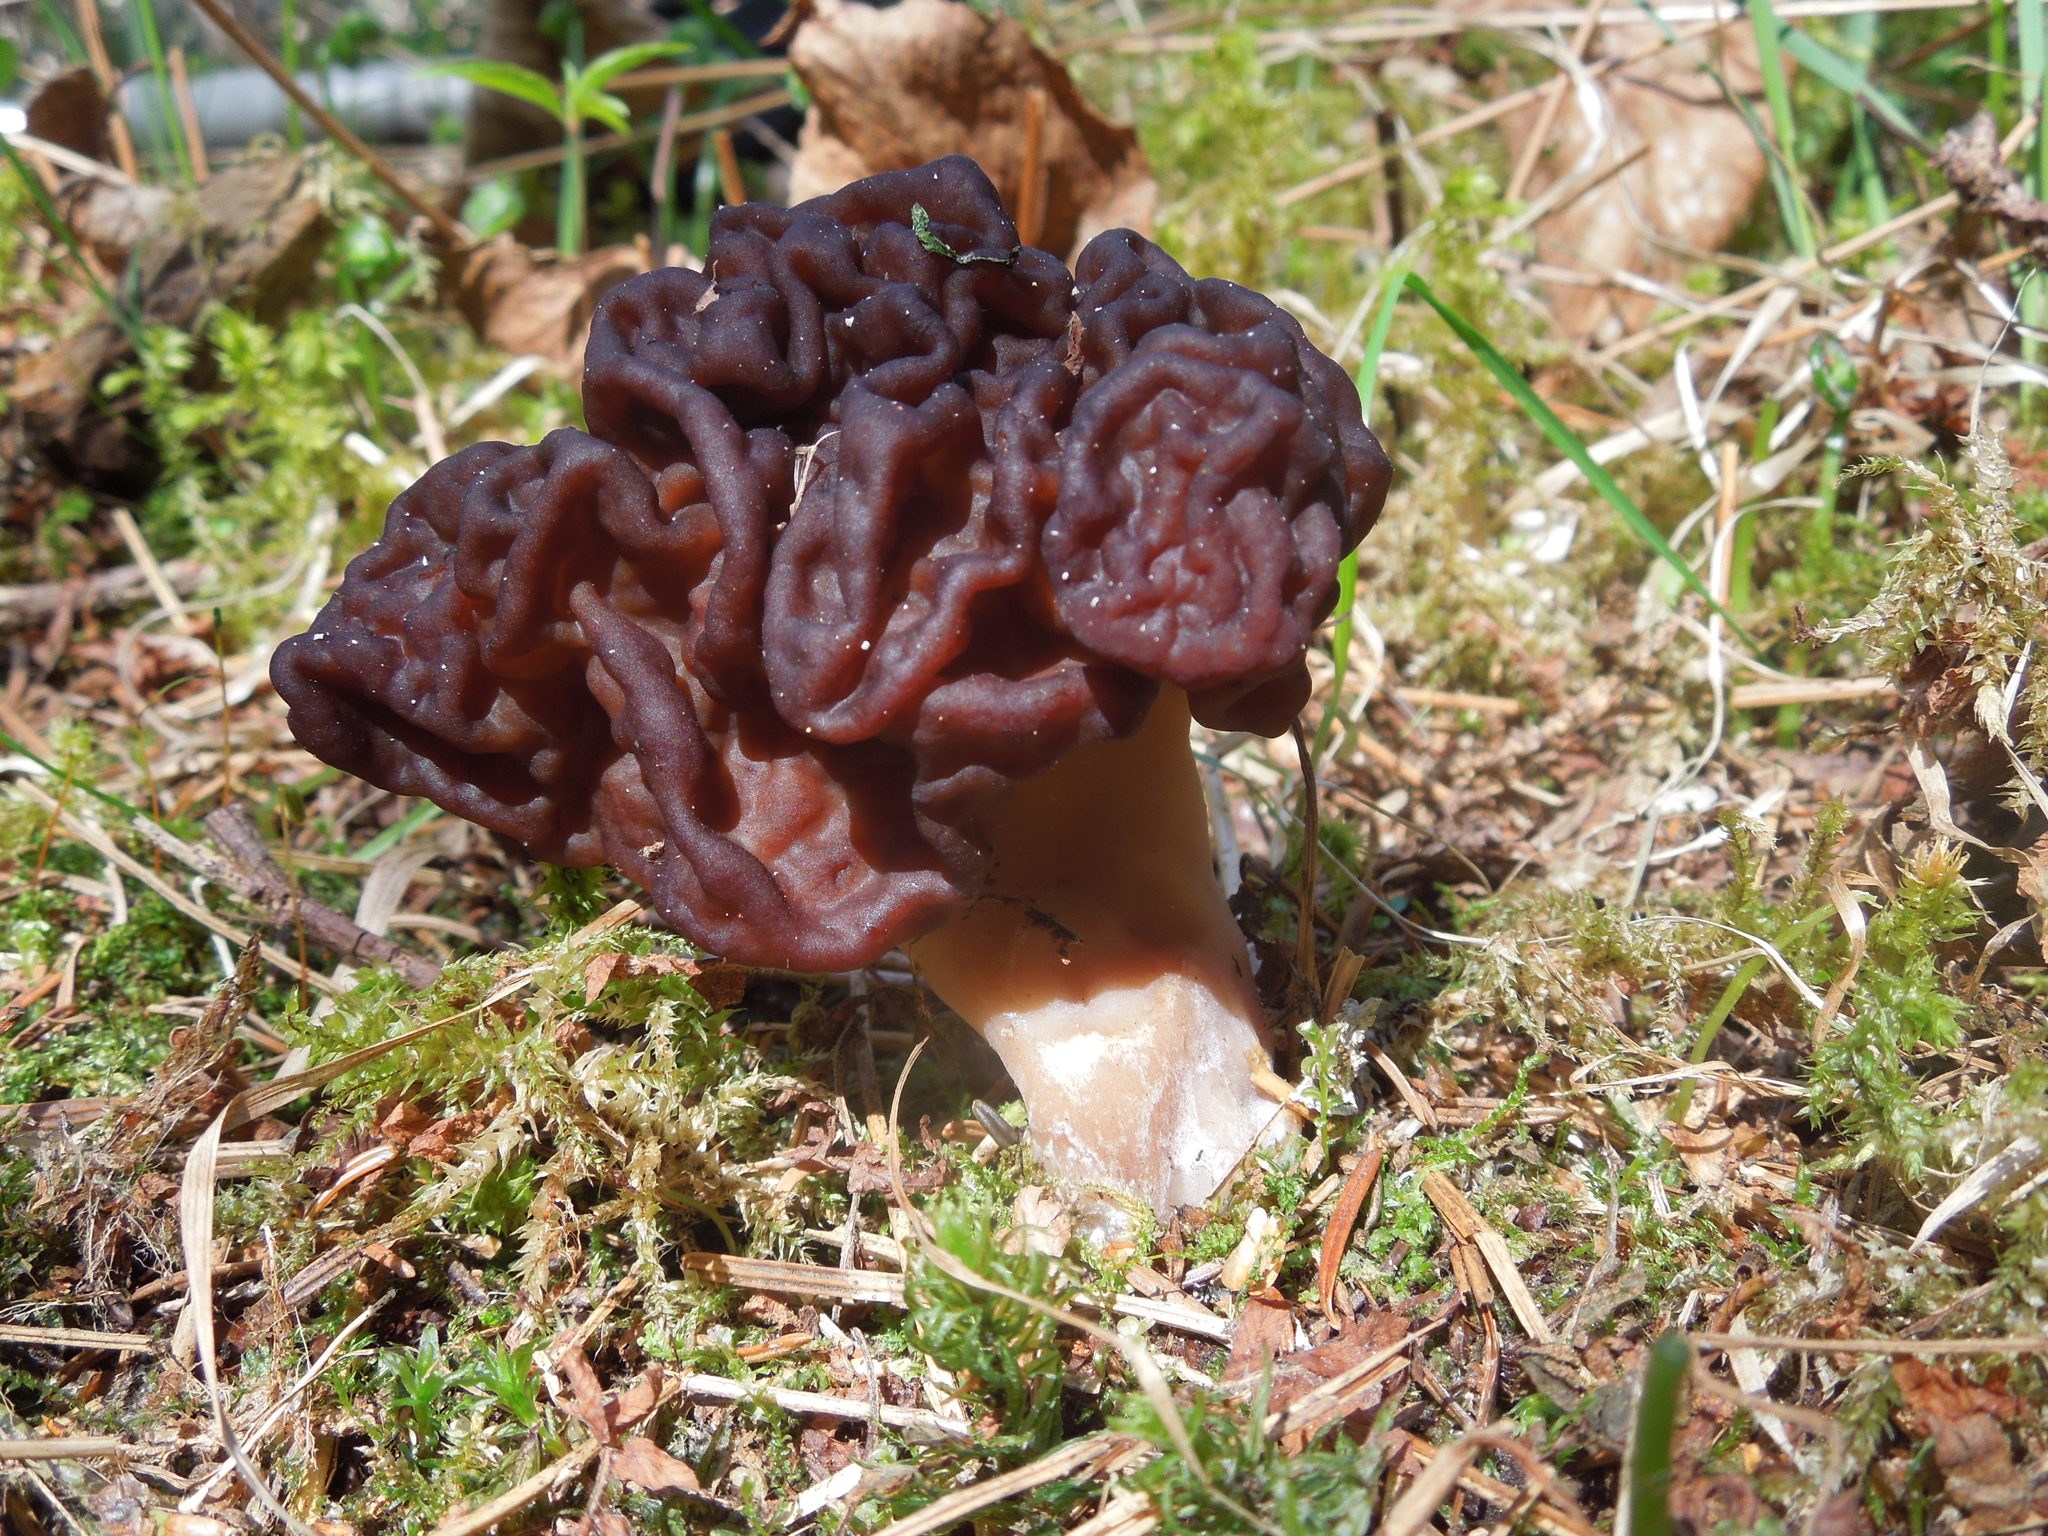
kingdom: Fungi
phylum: Ascomycota
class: Pezizomycetes
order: Pezizales
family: Discinaceae
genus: Gyromitra
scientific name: Gyromitra esculenta
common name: False morel
